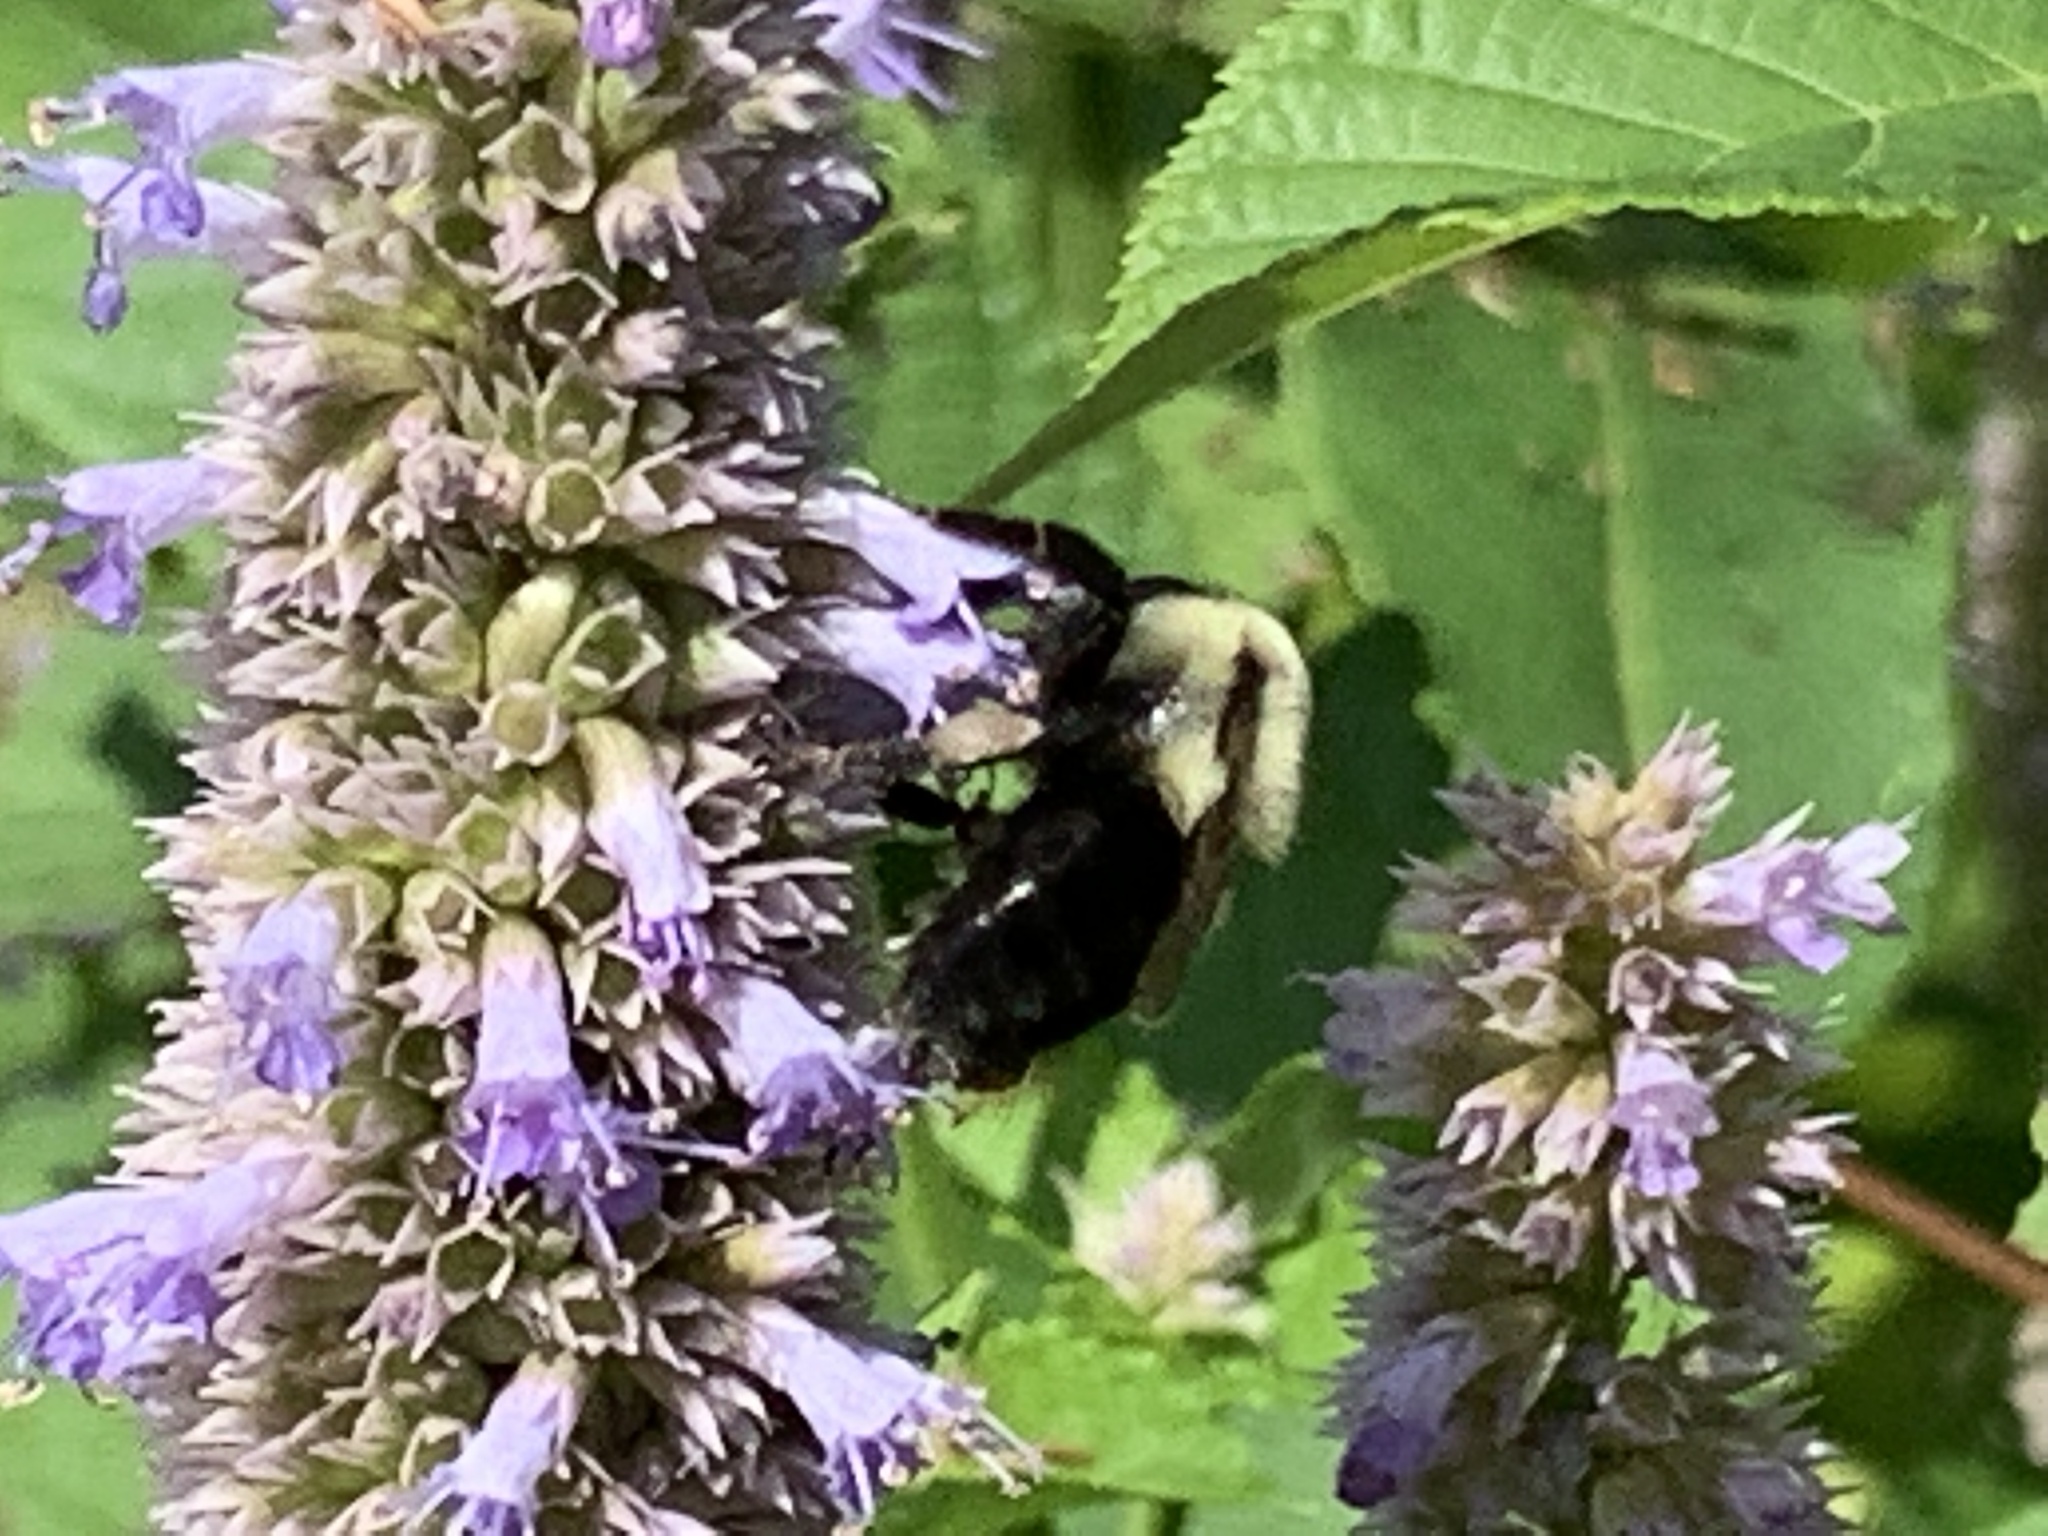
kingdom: Animalia
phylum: Arthropoda
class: Insecta
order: Hymenoptera
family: Apidae
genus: Bombus
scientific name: Bombus impatiens
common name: Common eastern bumble bee
